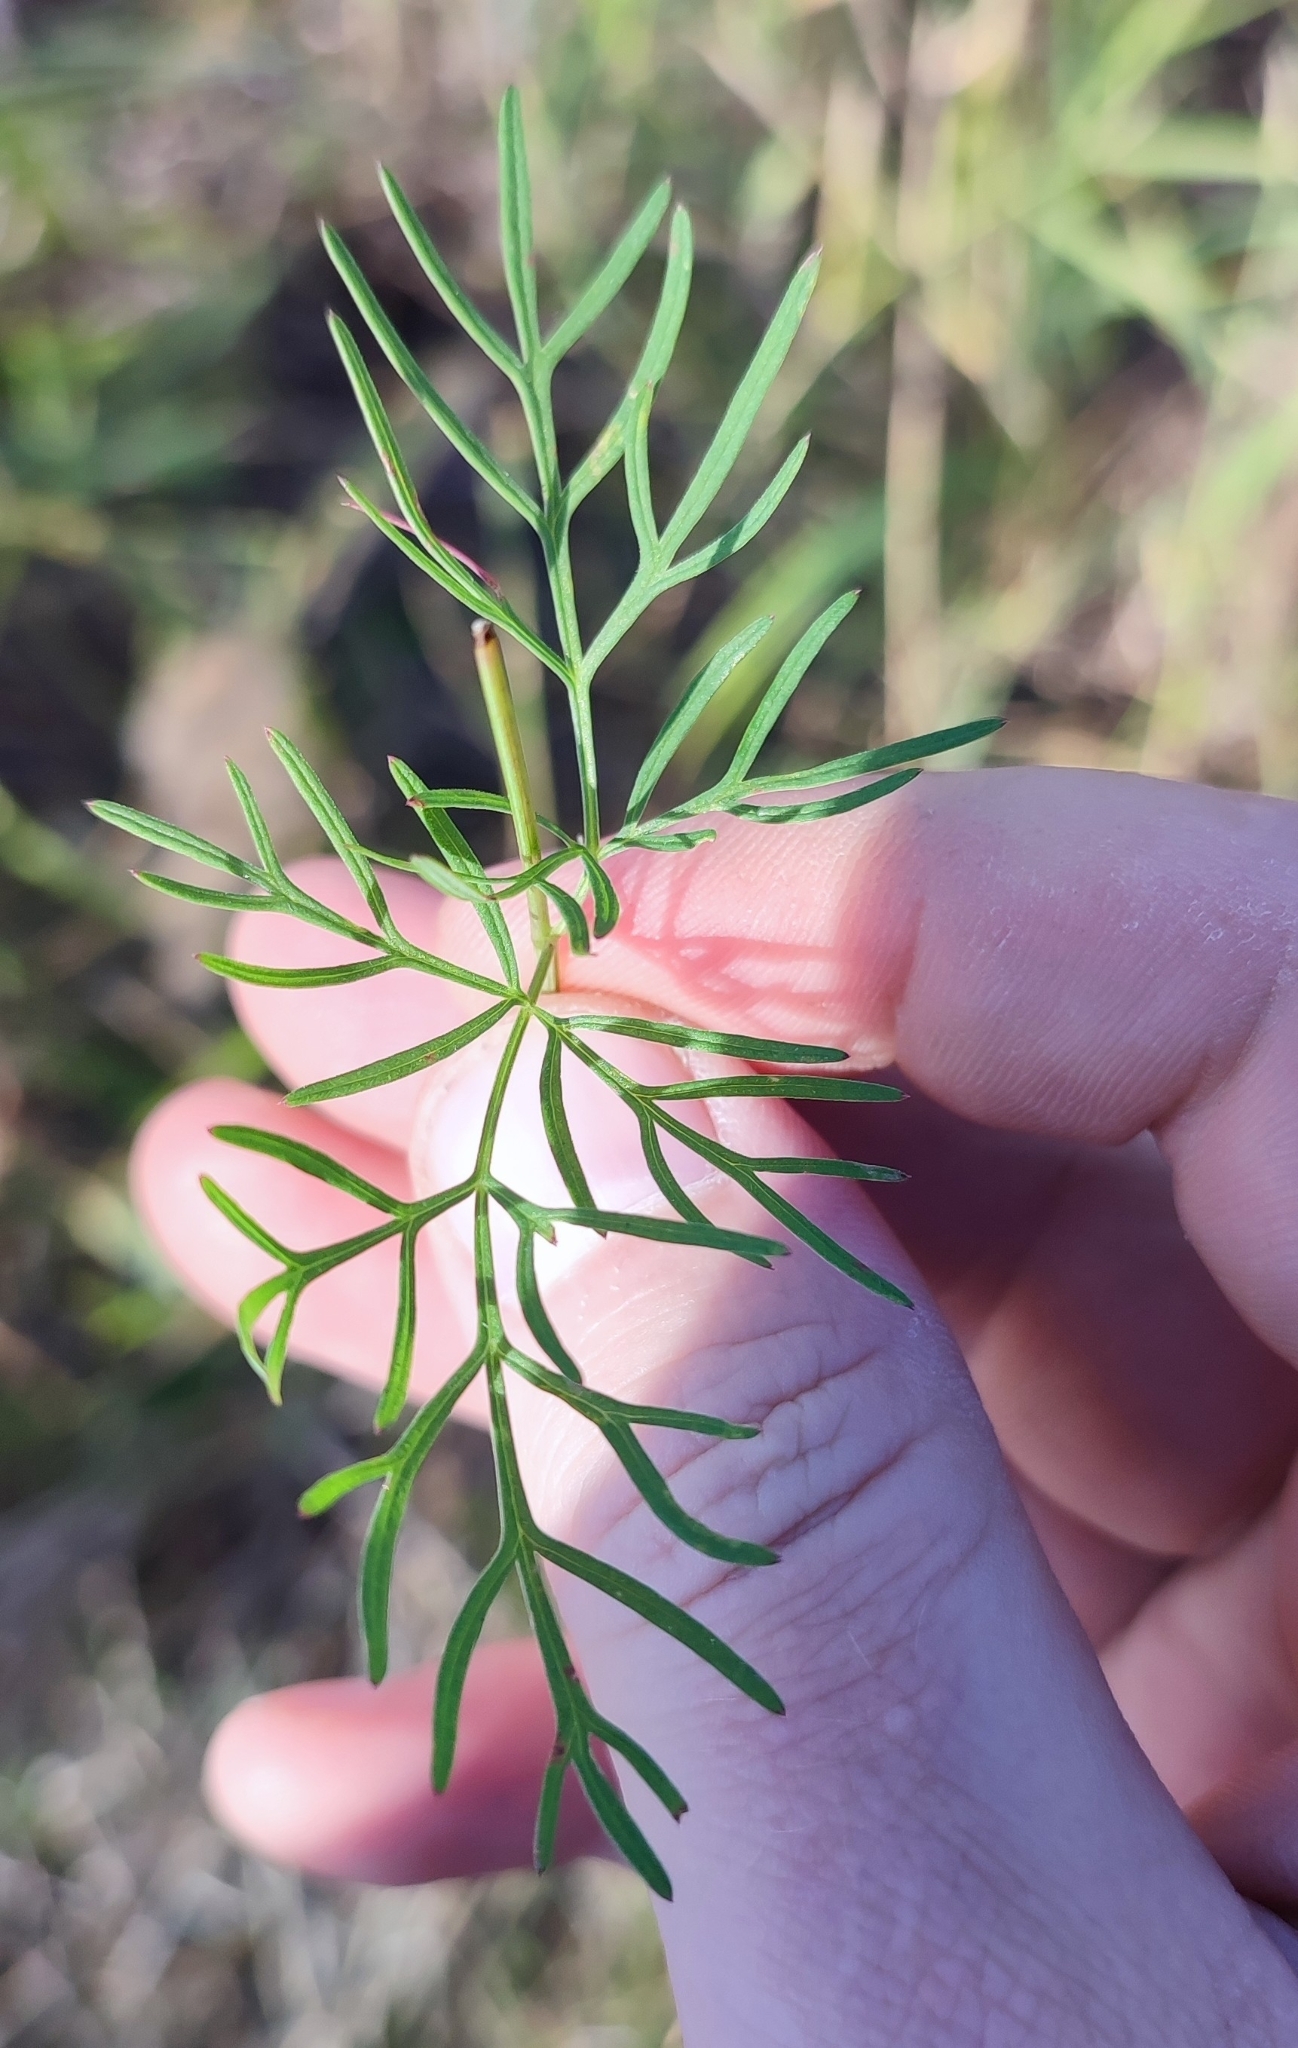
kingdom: Plantae
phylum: Tracheophyta
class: Magnoliopsida
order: Apiales
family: Apiaceae
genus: Kadenia
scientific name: Kadenia dubia
